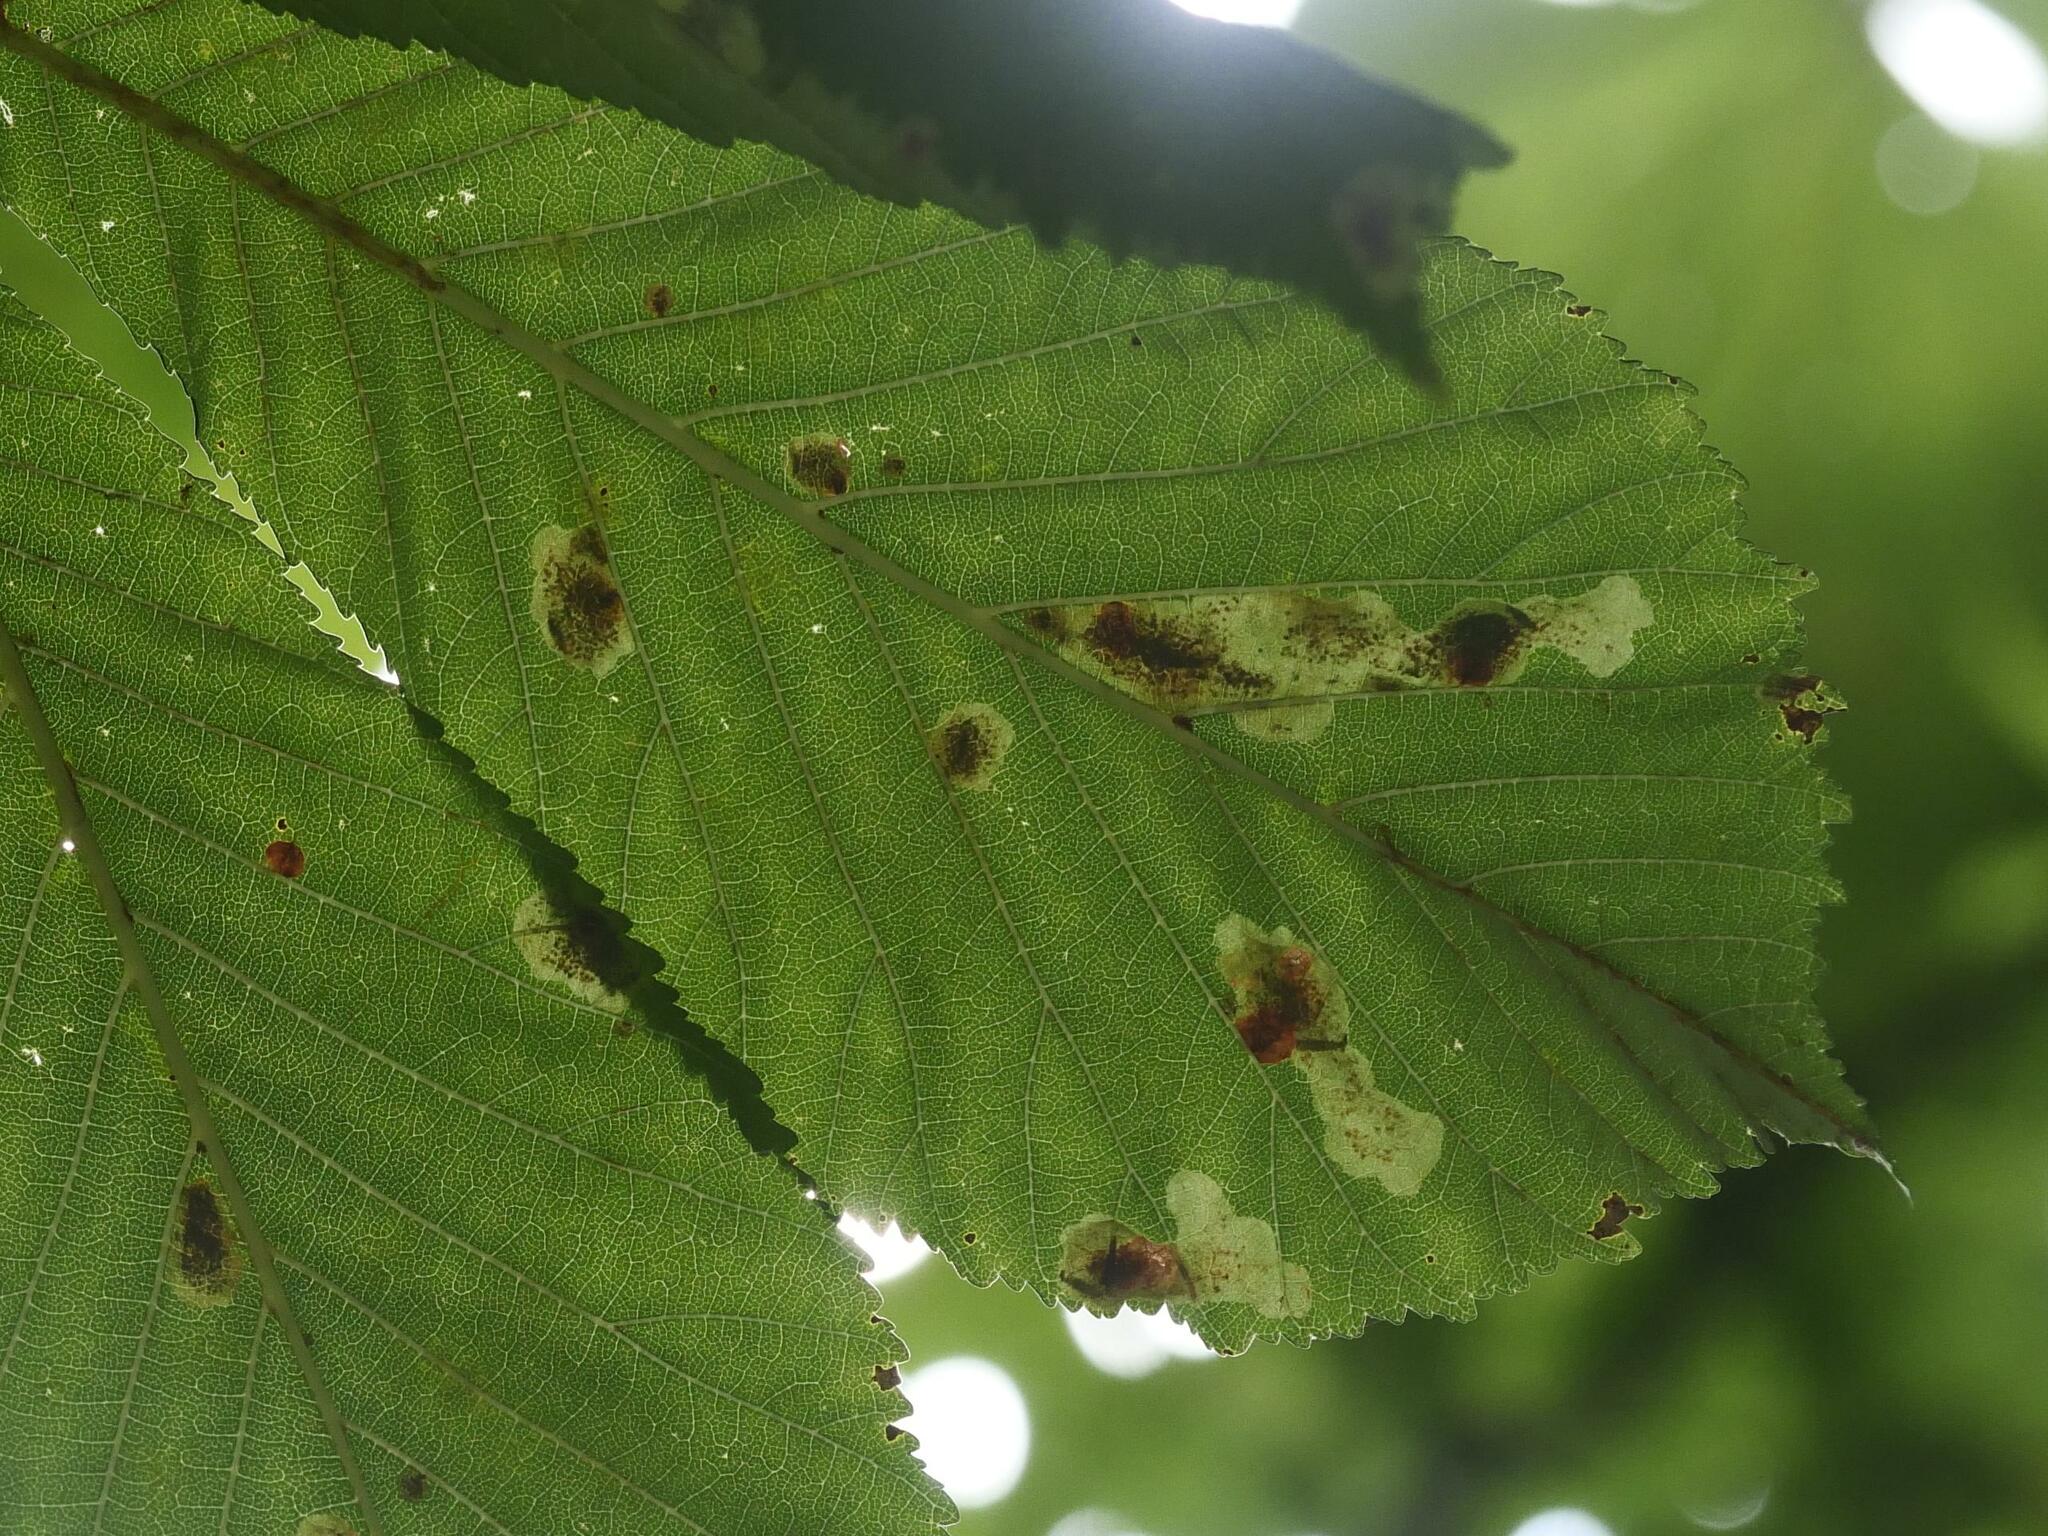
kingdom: Animalia
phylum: Arthropoda
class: Insecta
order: Lepidoptera
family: Gracillariidae
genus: Cameraria
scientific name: Cameraria ohridella
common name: Horse-chestnut leaf-miner
